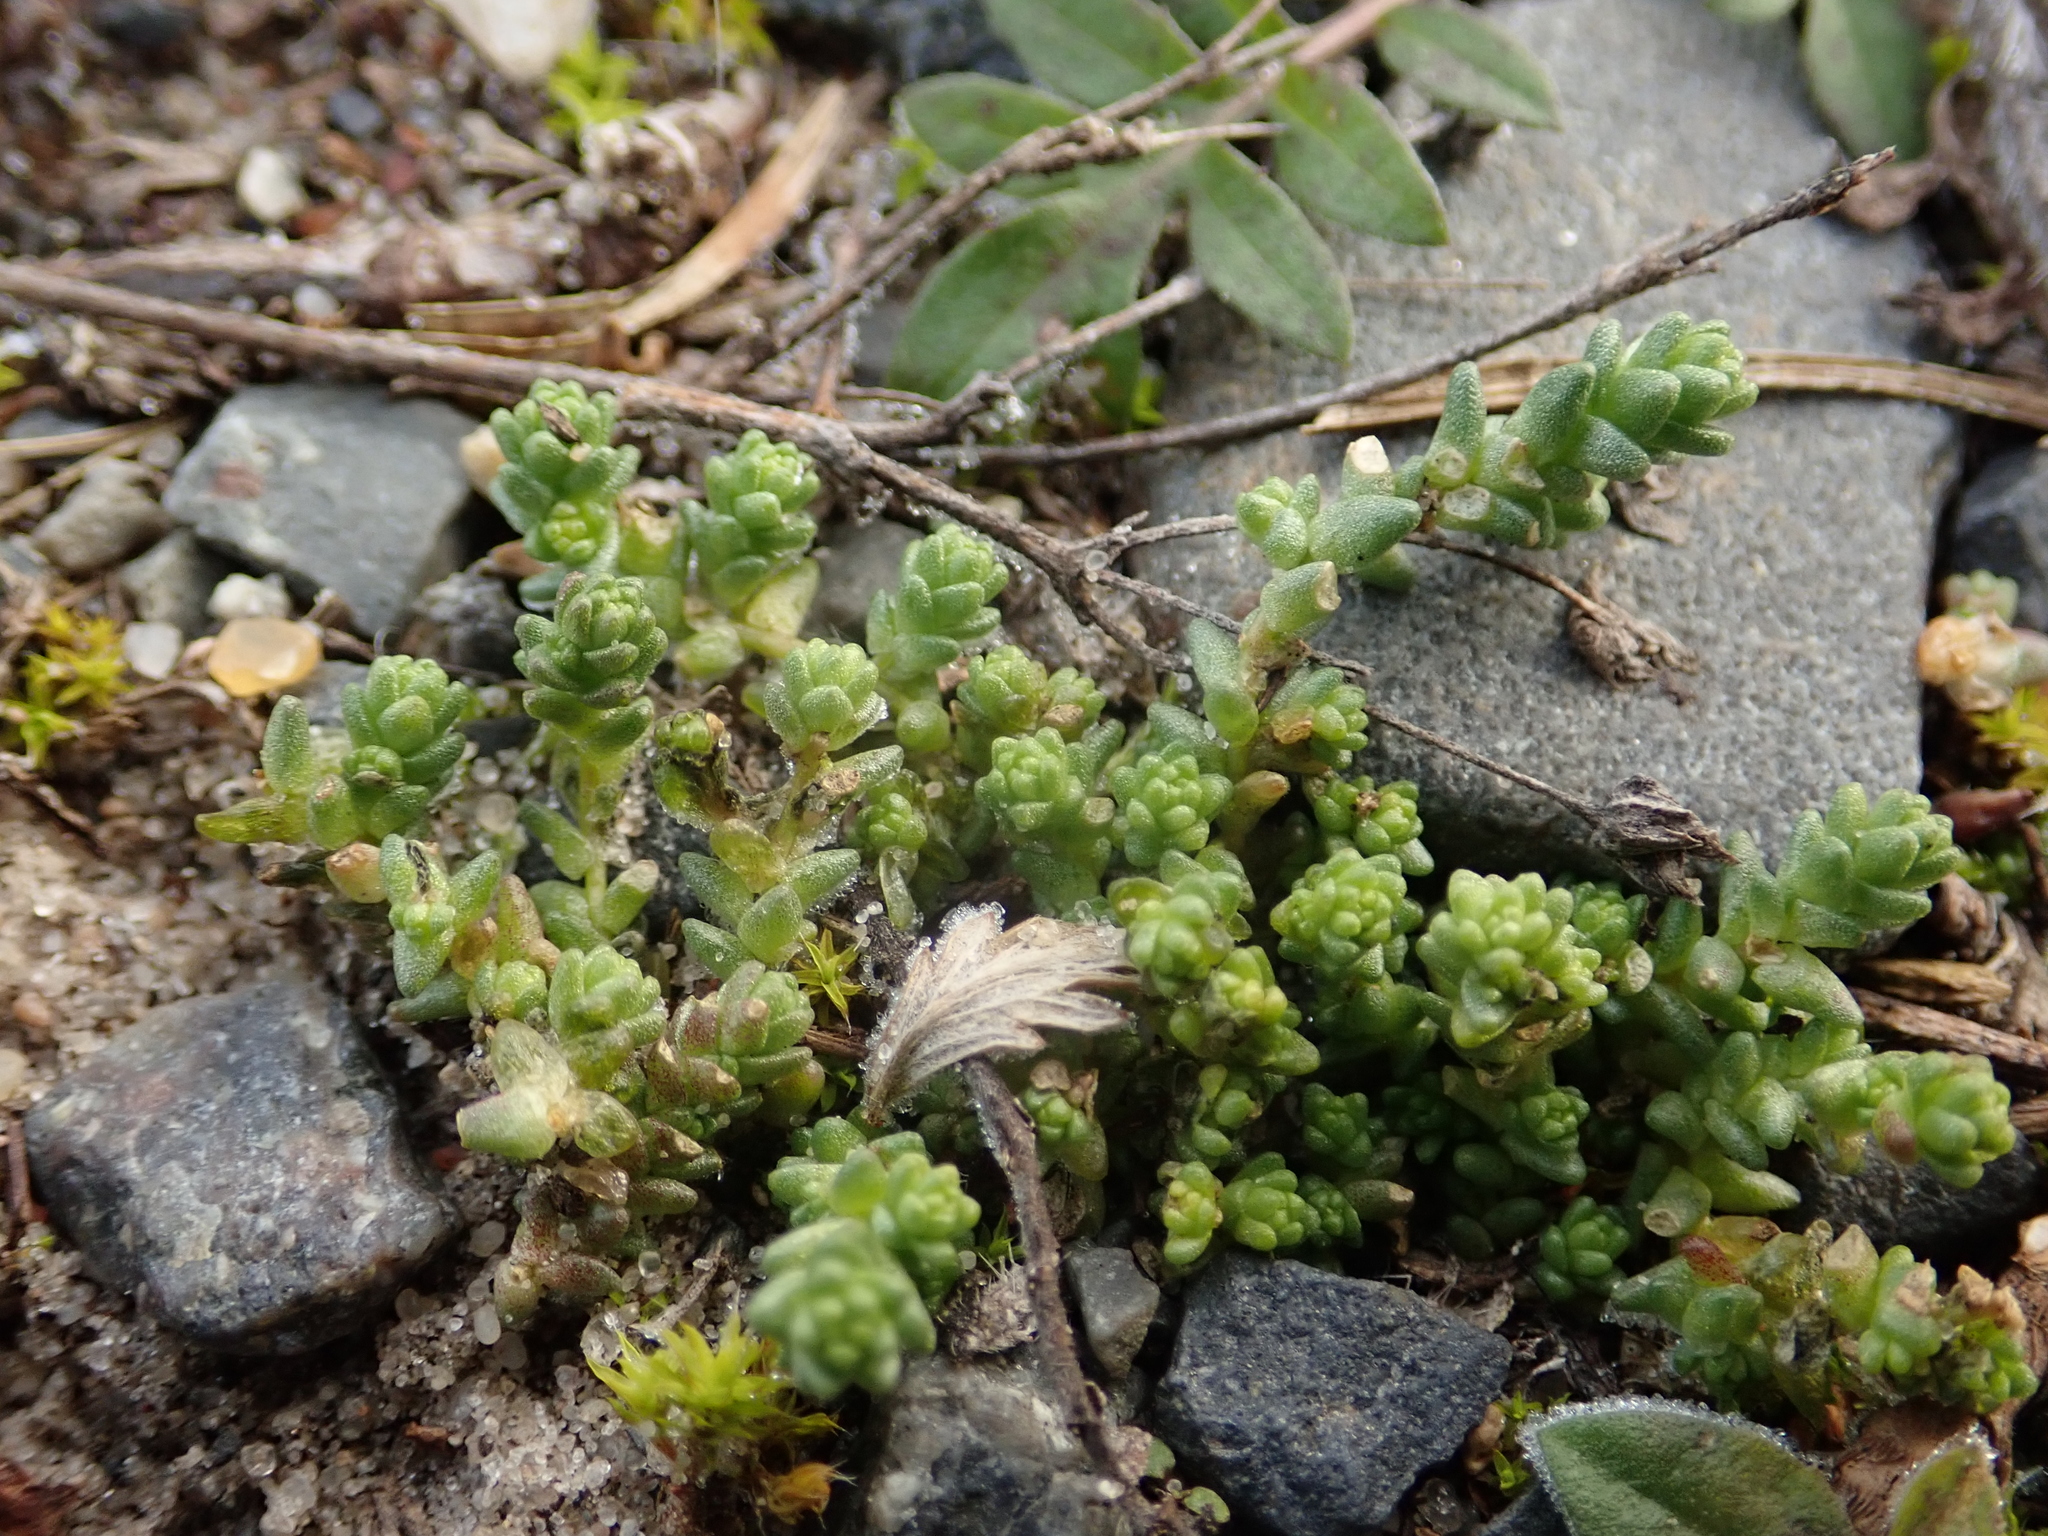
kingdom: Plantae
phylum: Tracheophyta
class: Magnoliopsida
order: Saxifragales
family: Crassulaceae
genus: Sedum
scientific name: Sedum acre
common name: Biting stonecrop
